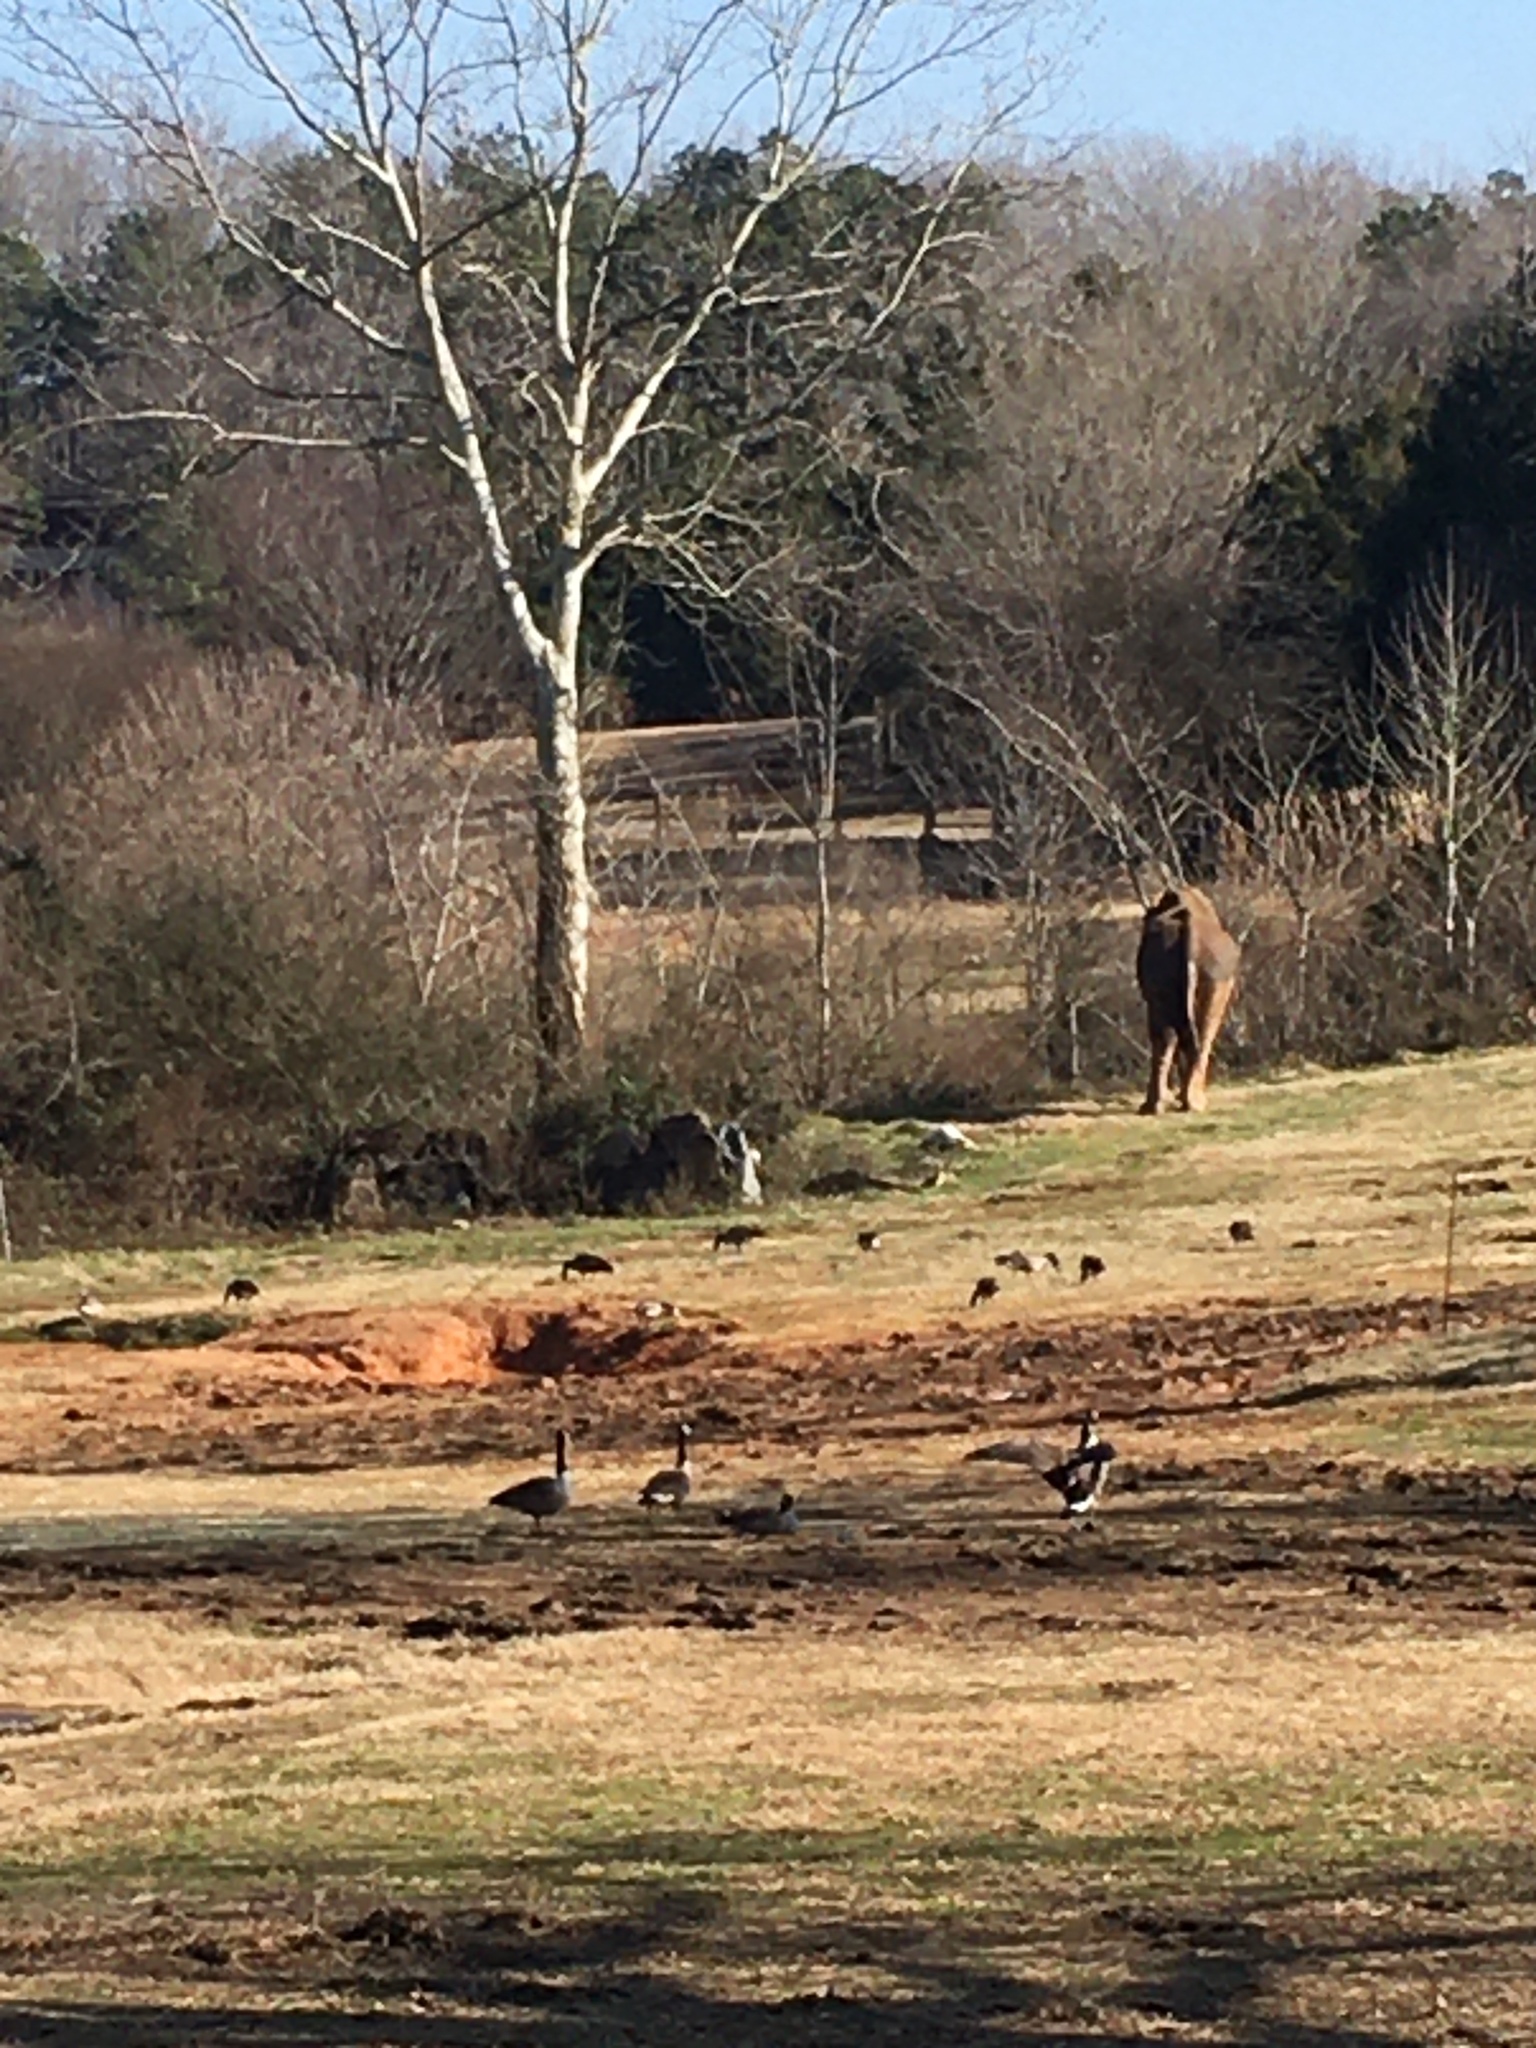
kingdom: Animalia
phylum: Chordata
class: Aves
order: Anseriformes
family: Anatidae
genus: Branta
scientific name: Branta canadensis
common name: Canada goose
